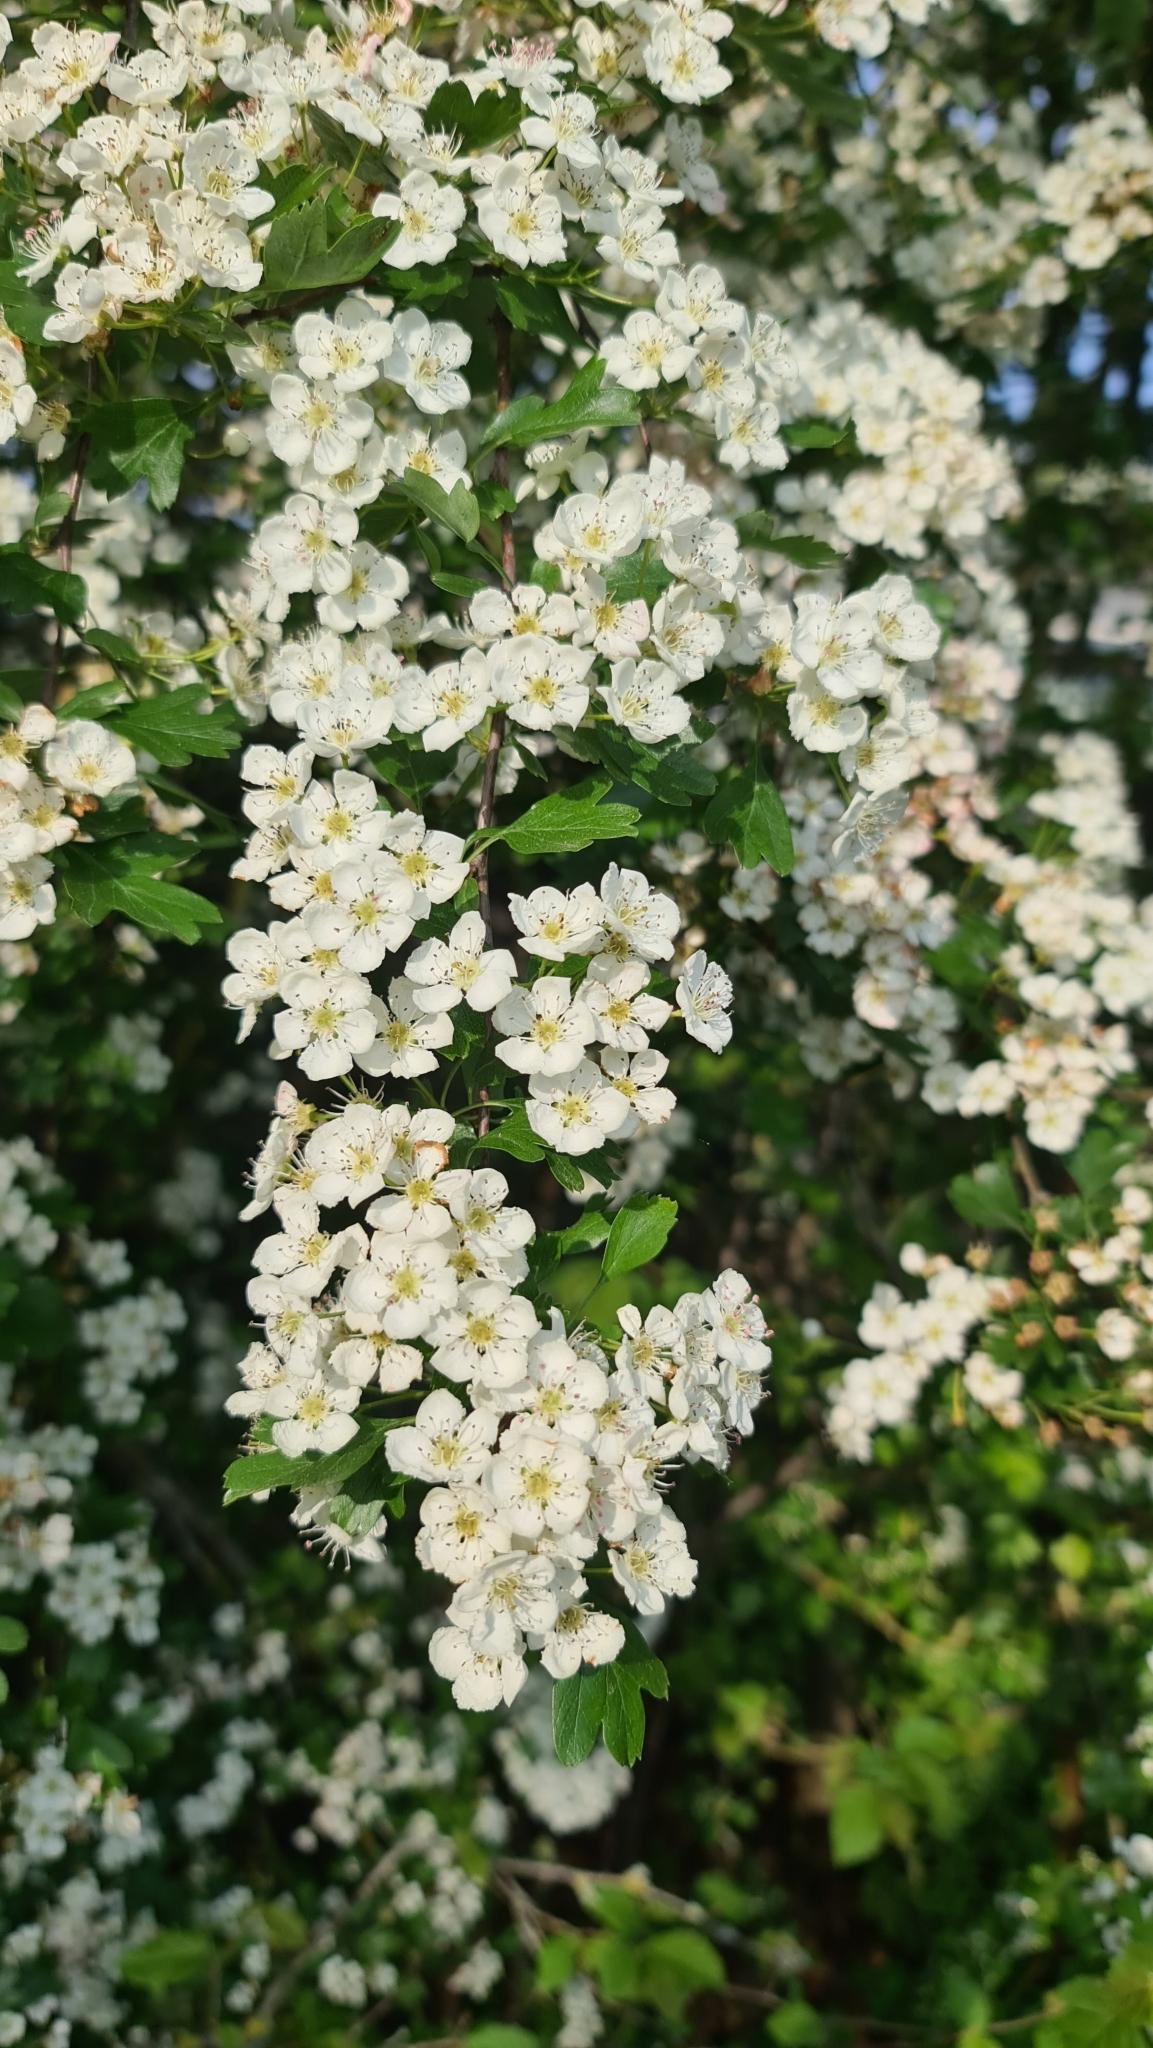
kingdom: Plantae
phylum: Tracheophyta
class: Magnoliopsida
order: Rosales
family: Rosaceae
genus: Crataegus
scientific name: Crataegus monogyna
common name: Hawthorn
